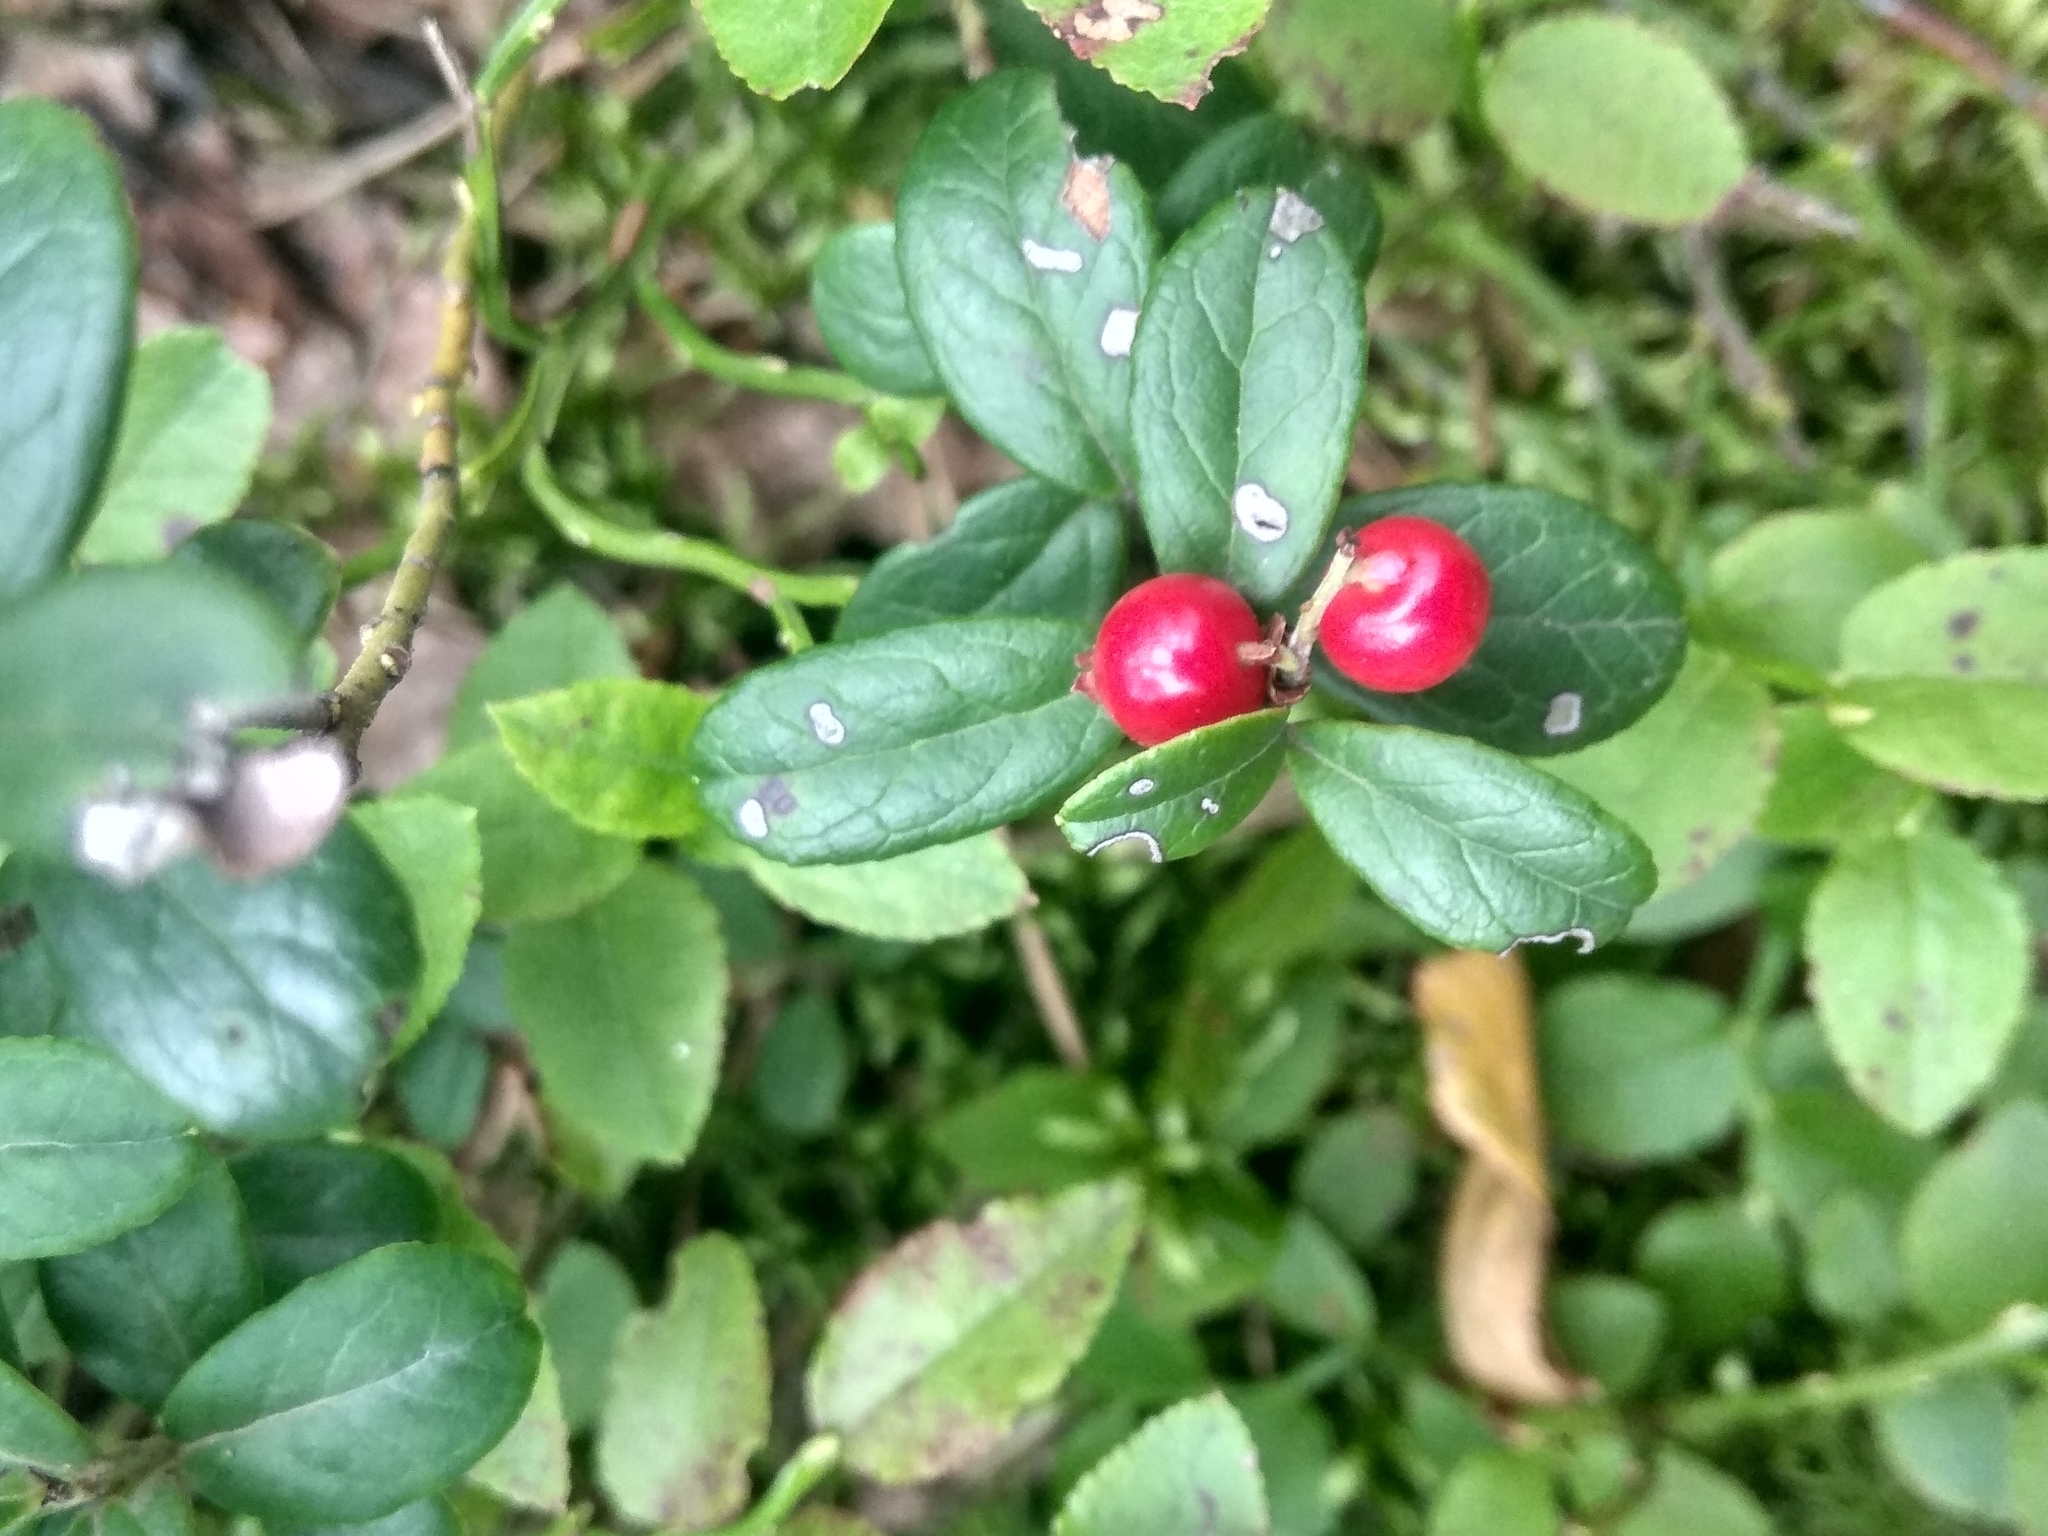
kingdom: Plantae
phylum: Tracheophyta
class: Magnoliopsida
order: Ericales
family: Ericaceae
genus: Vaccinium
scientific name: Vaccinium vitis-idaea
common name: Cowberry
